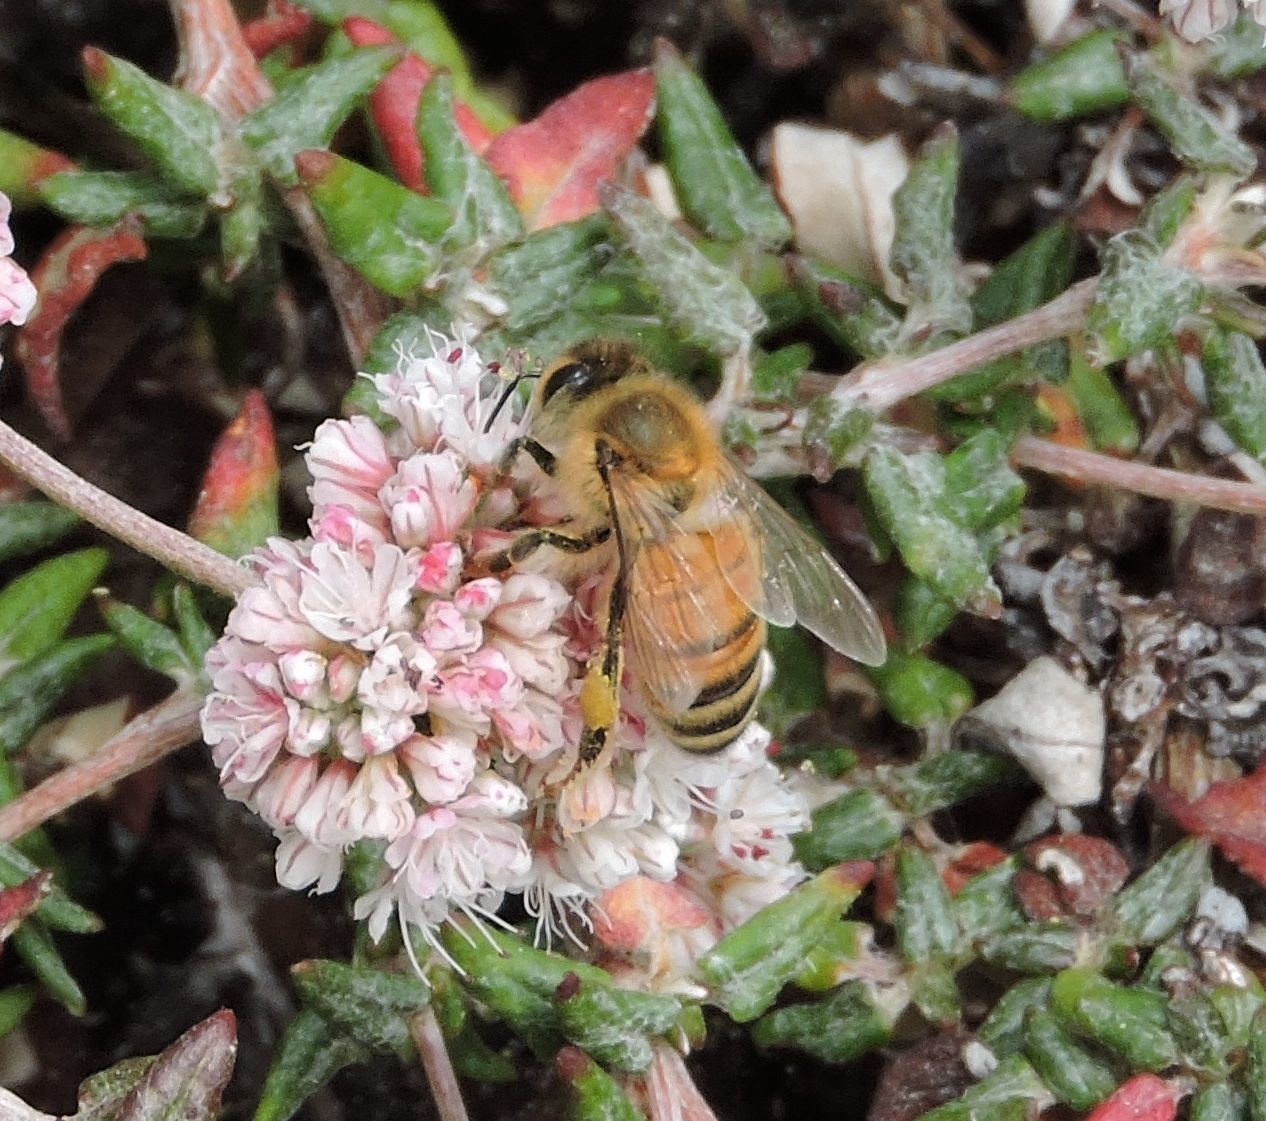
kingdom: Animalia
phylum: Arthropoda
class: Insecta
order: Hymenoptera
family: Apidae
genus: Apis
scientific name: Apis mellifera
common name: Honey bee
